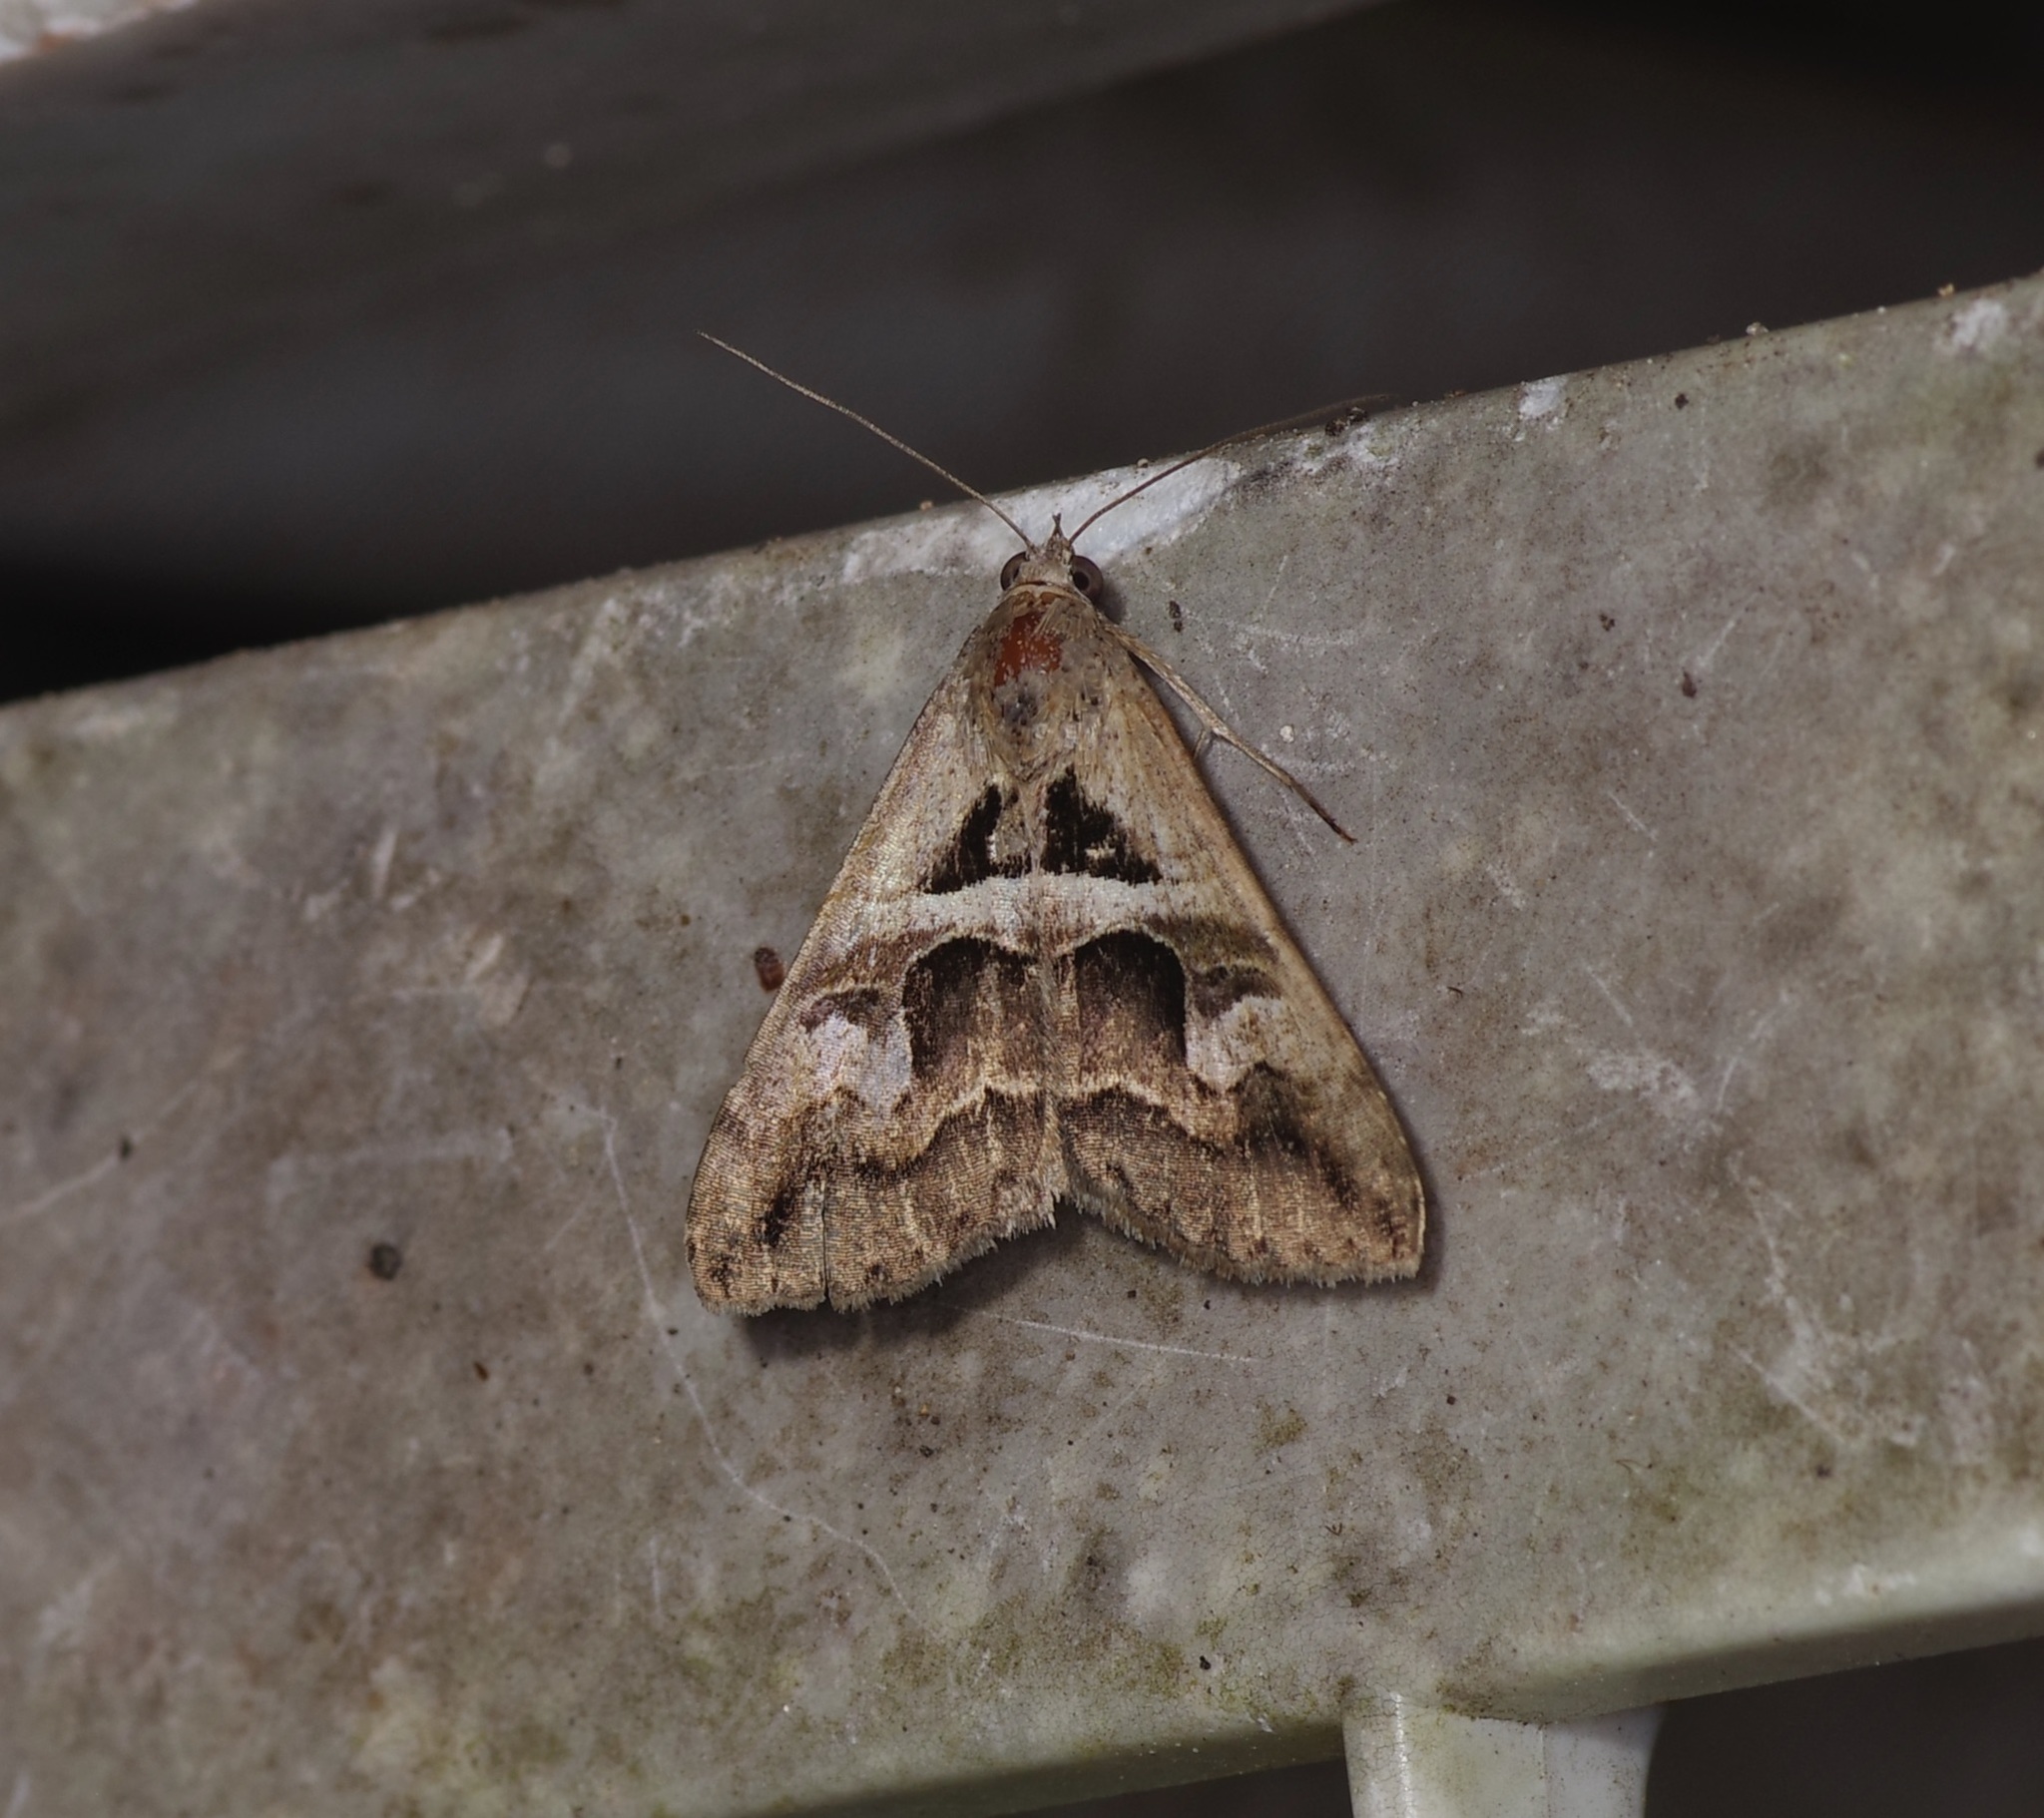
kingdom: Animalia
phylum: Arthropoda
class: Insecta
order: Lepidoptera
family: Erebidae
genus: Melipotis
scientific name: Melipotis cellaris
